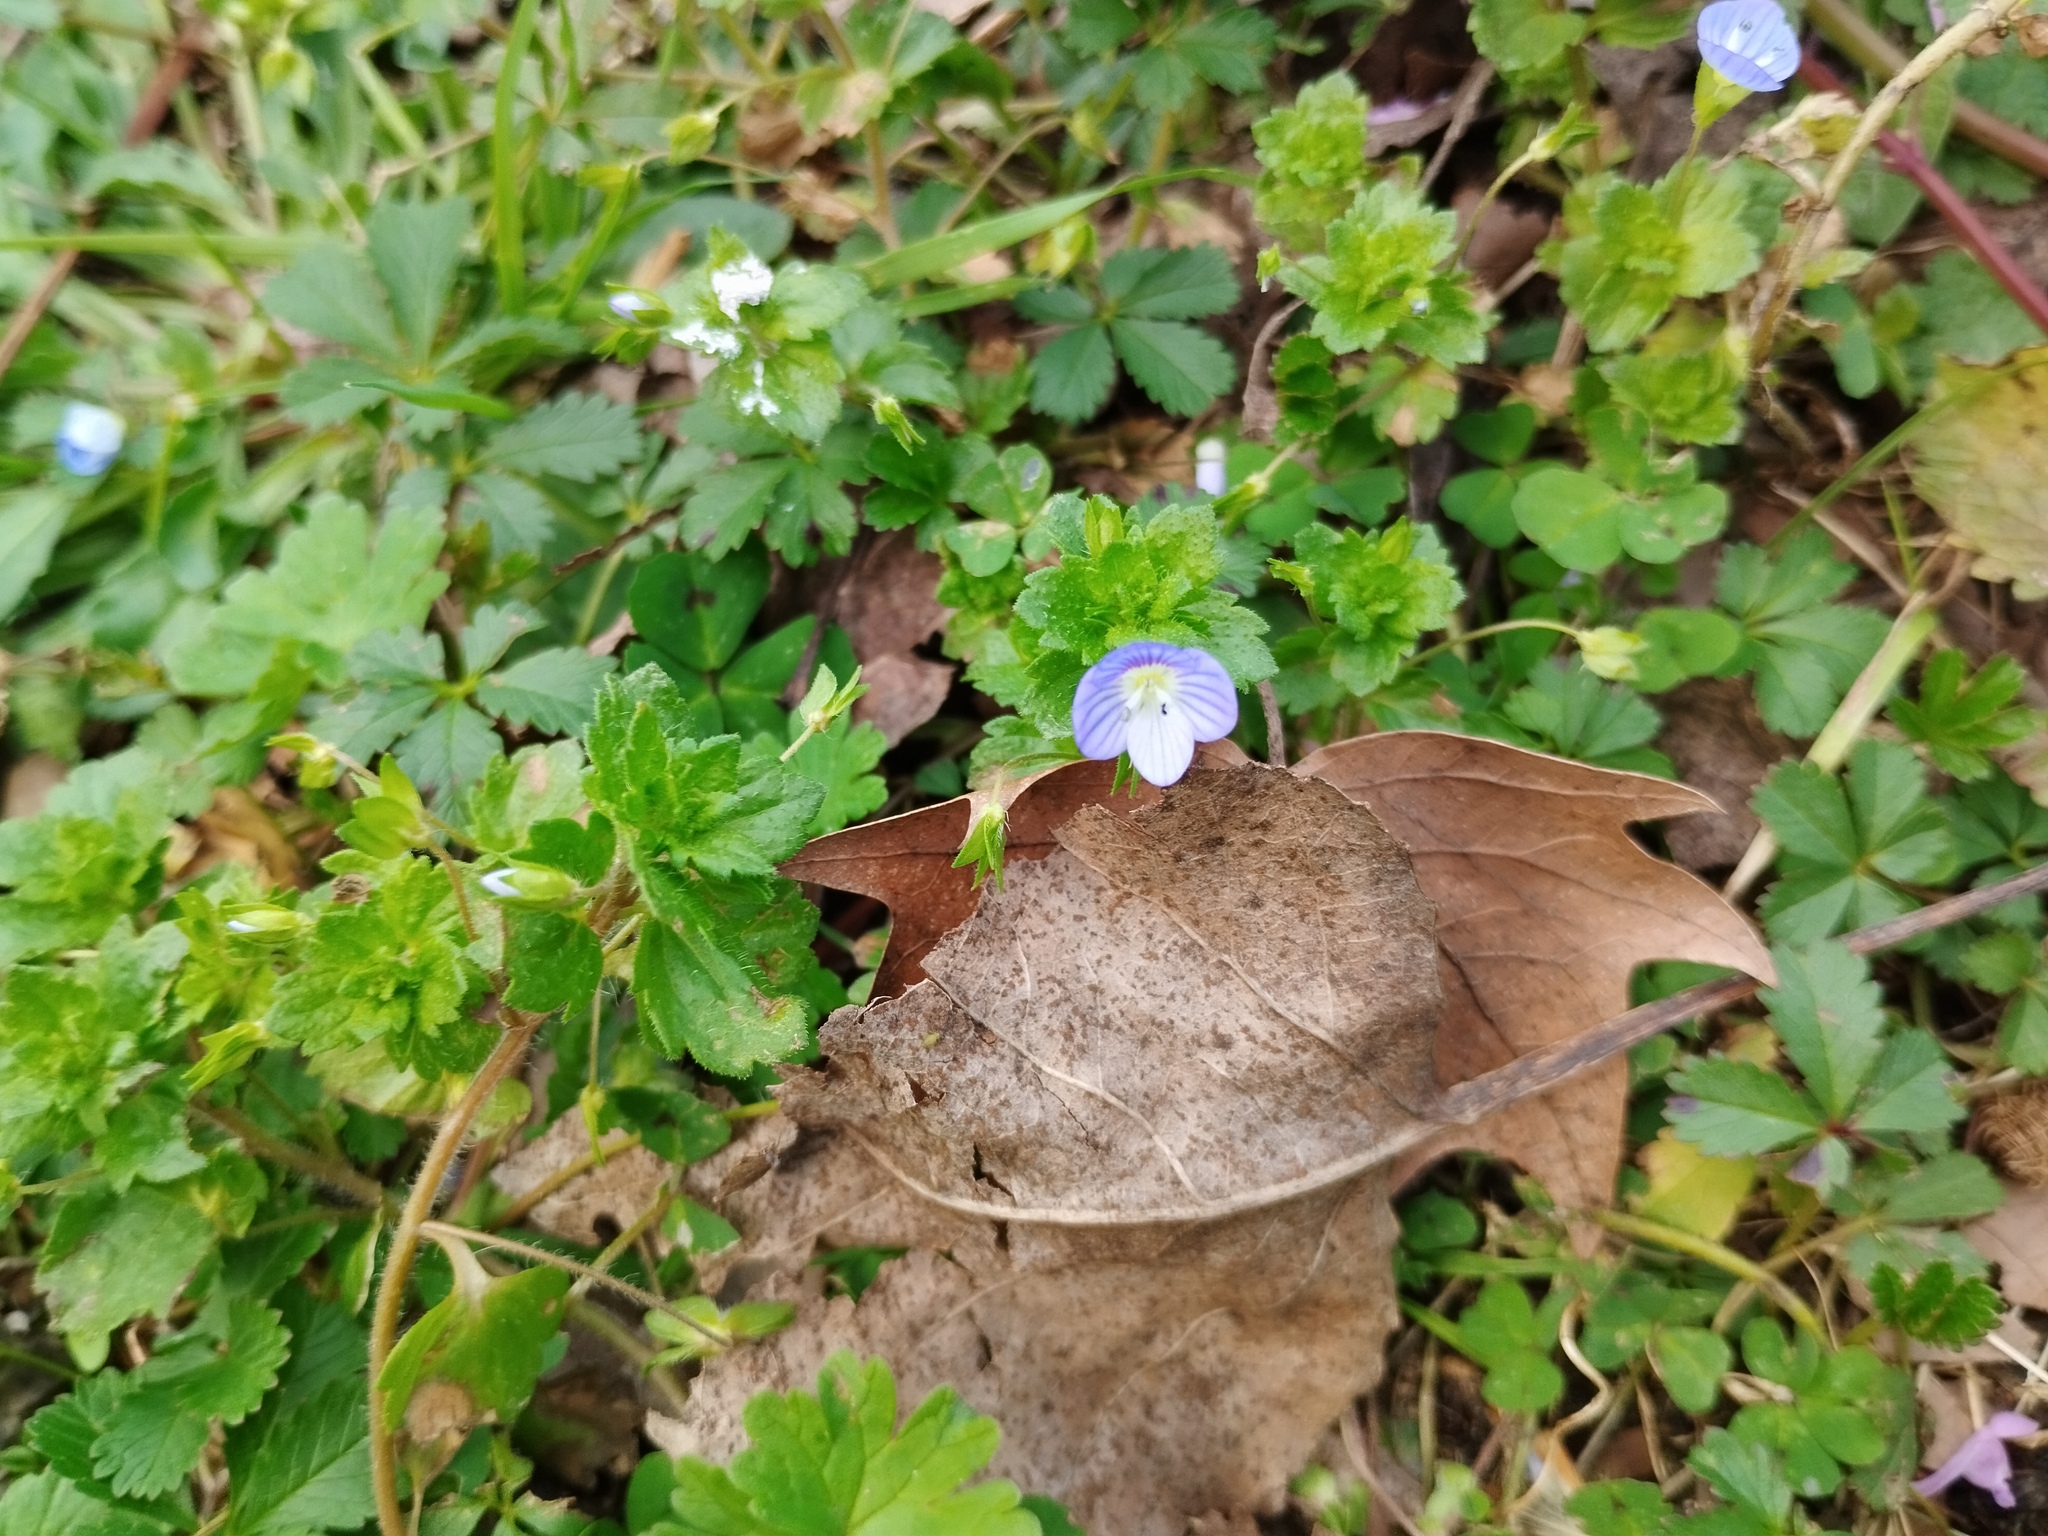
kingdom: Plantae
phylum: Tracheophyta
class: Magnoliopsida
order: Lamiales
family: Plantaginaceae
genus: Veronica
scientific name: Veronica persica
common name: Common field-speedwell
